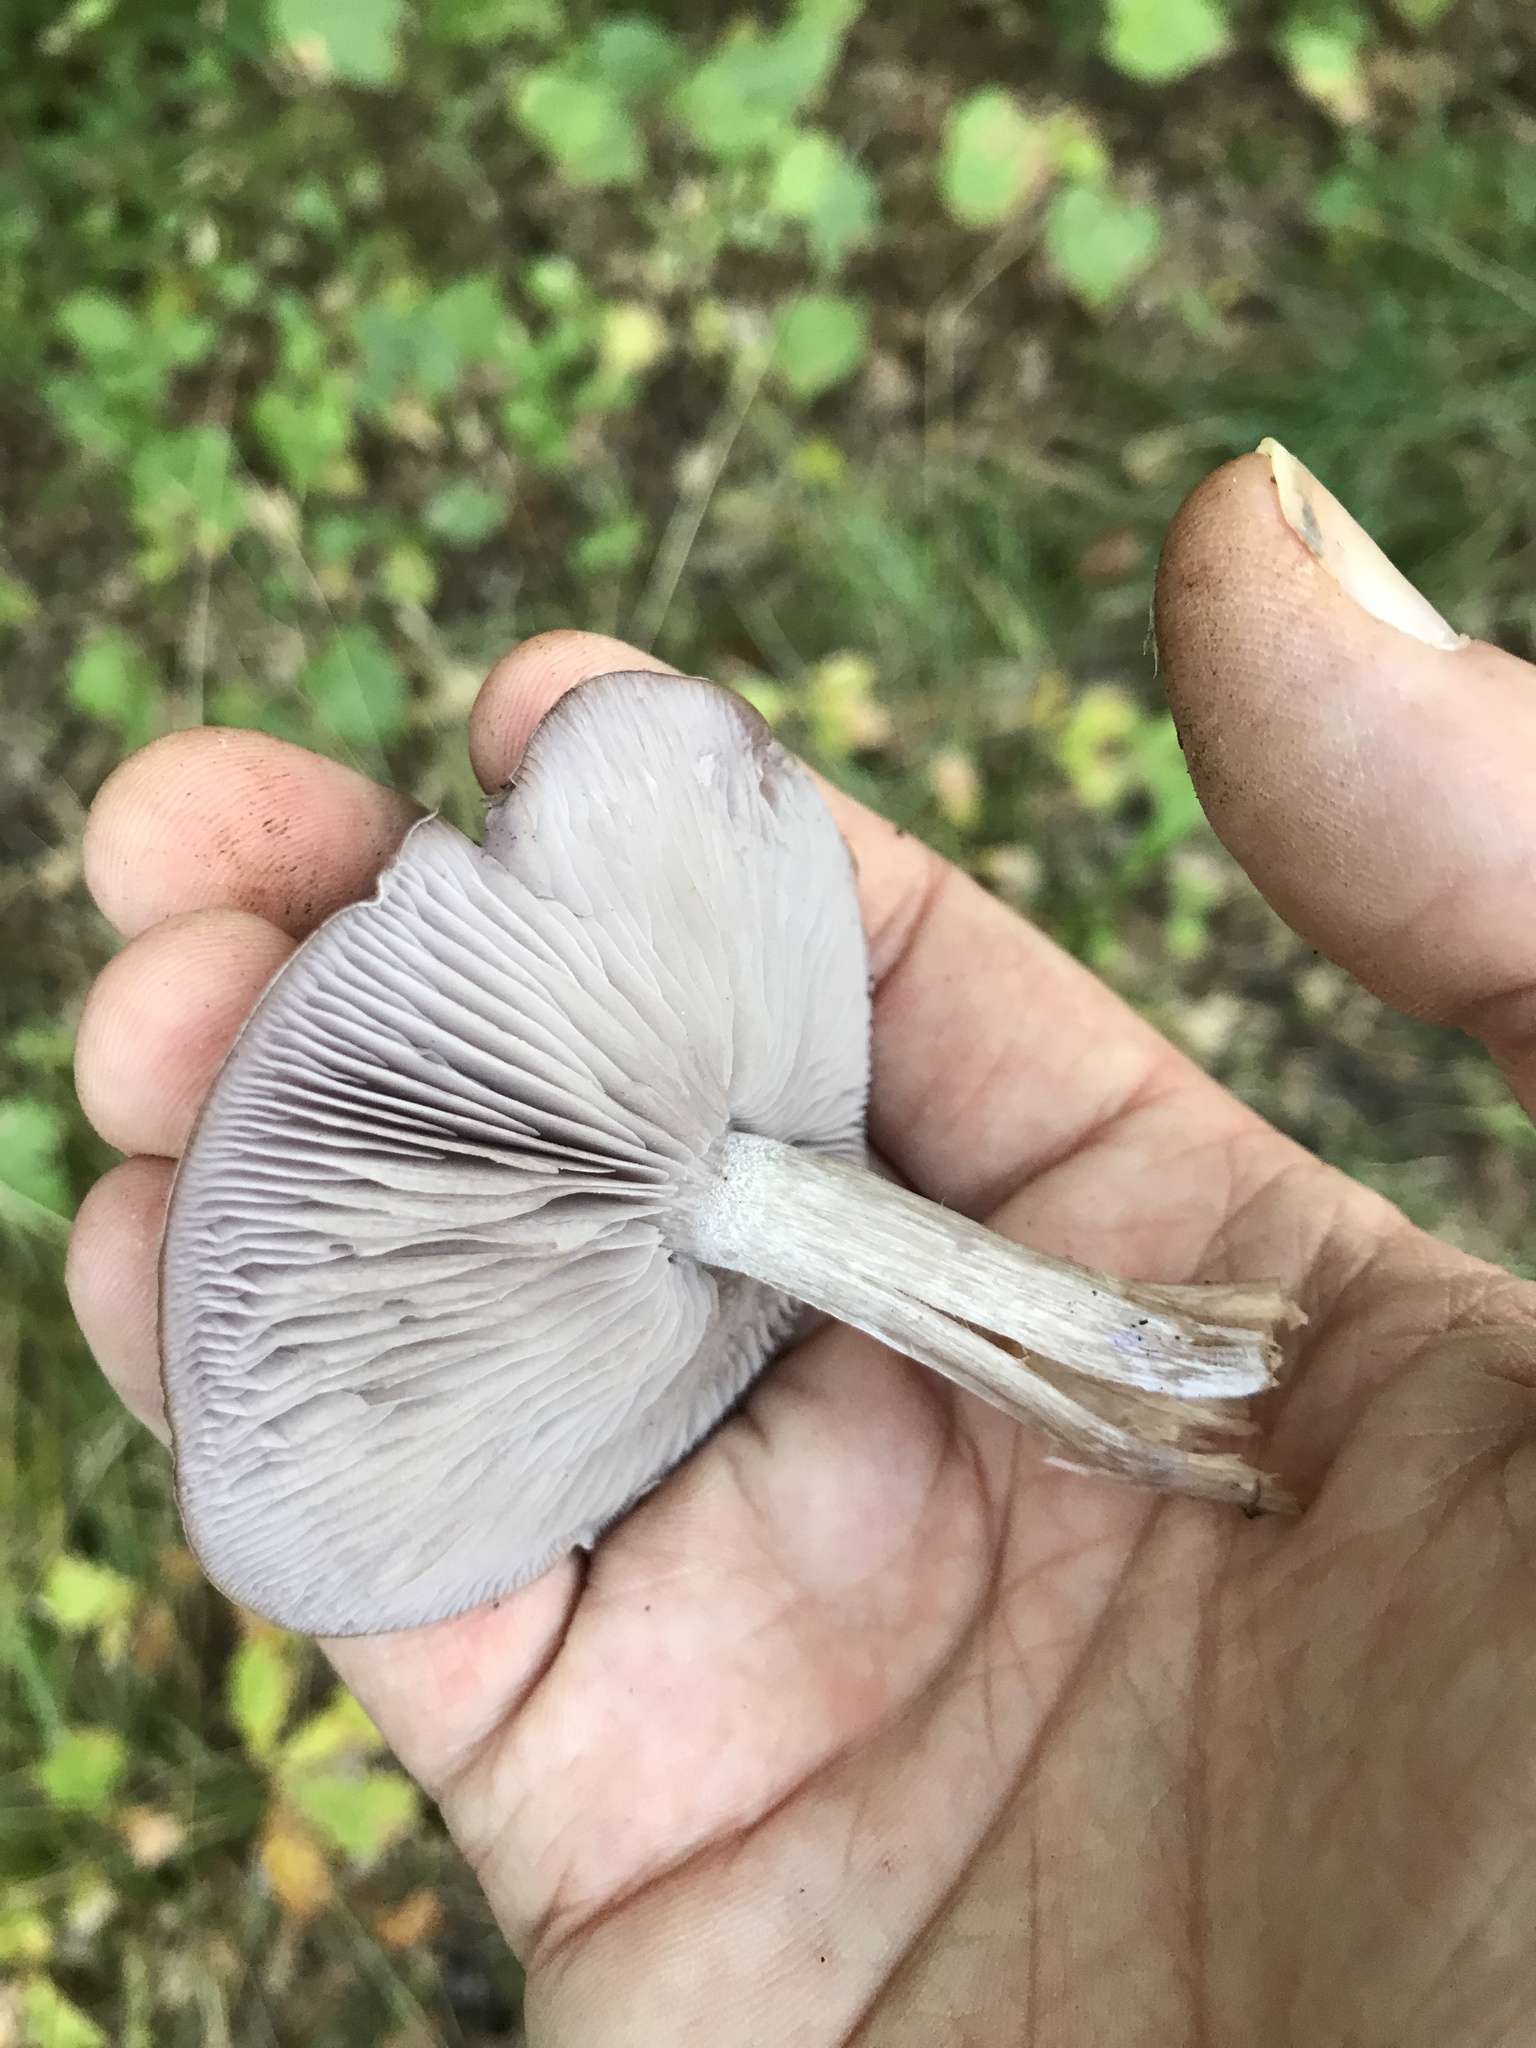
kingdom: Fungi
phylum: Basidiomycota
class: Agaricomycetes
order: Agaricales
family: Tricholomataceae
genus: Collybia
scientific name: Collybia
